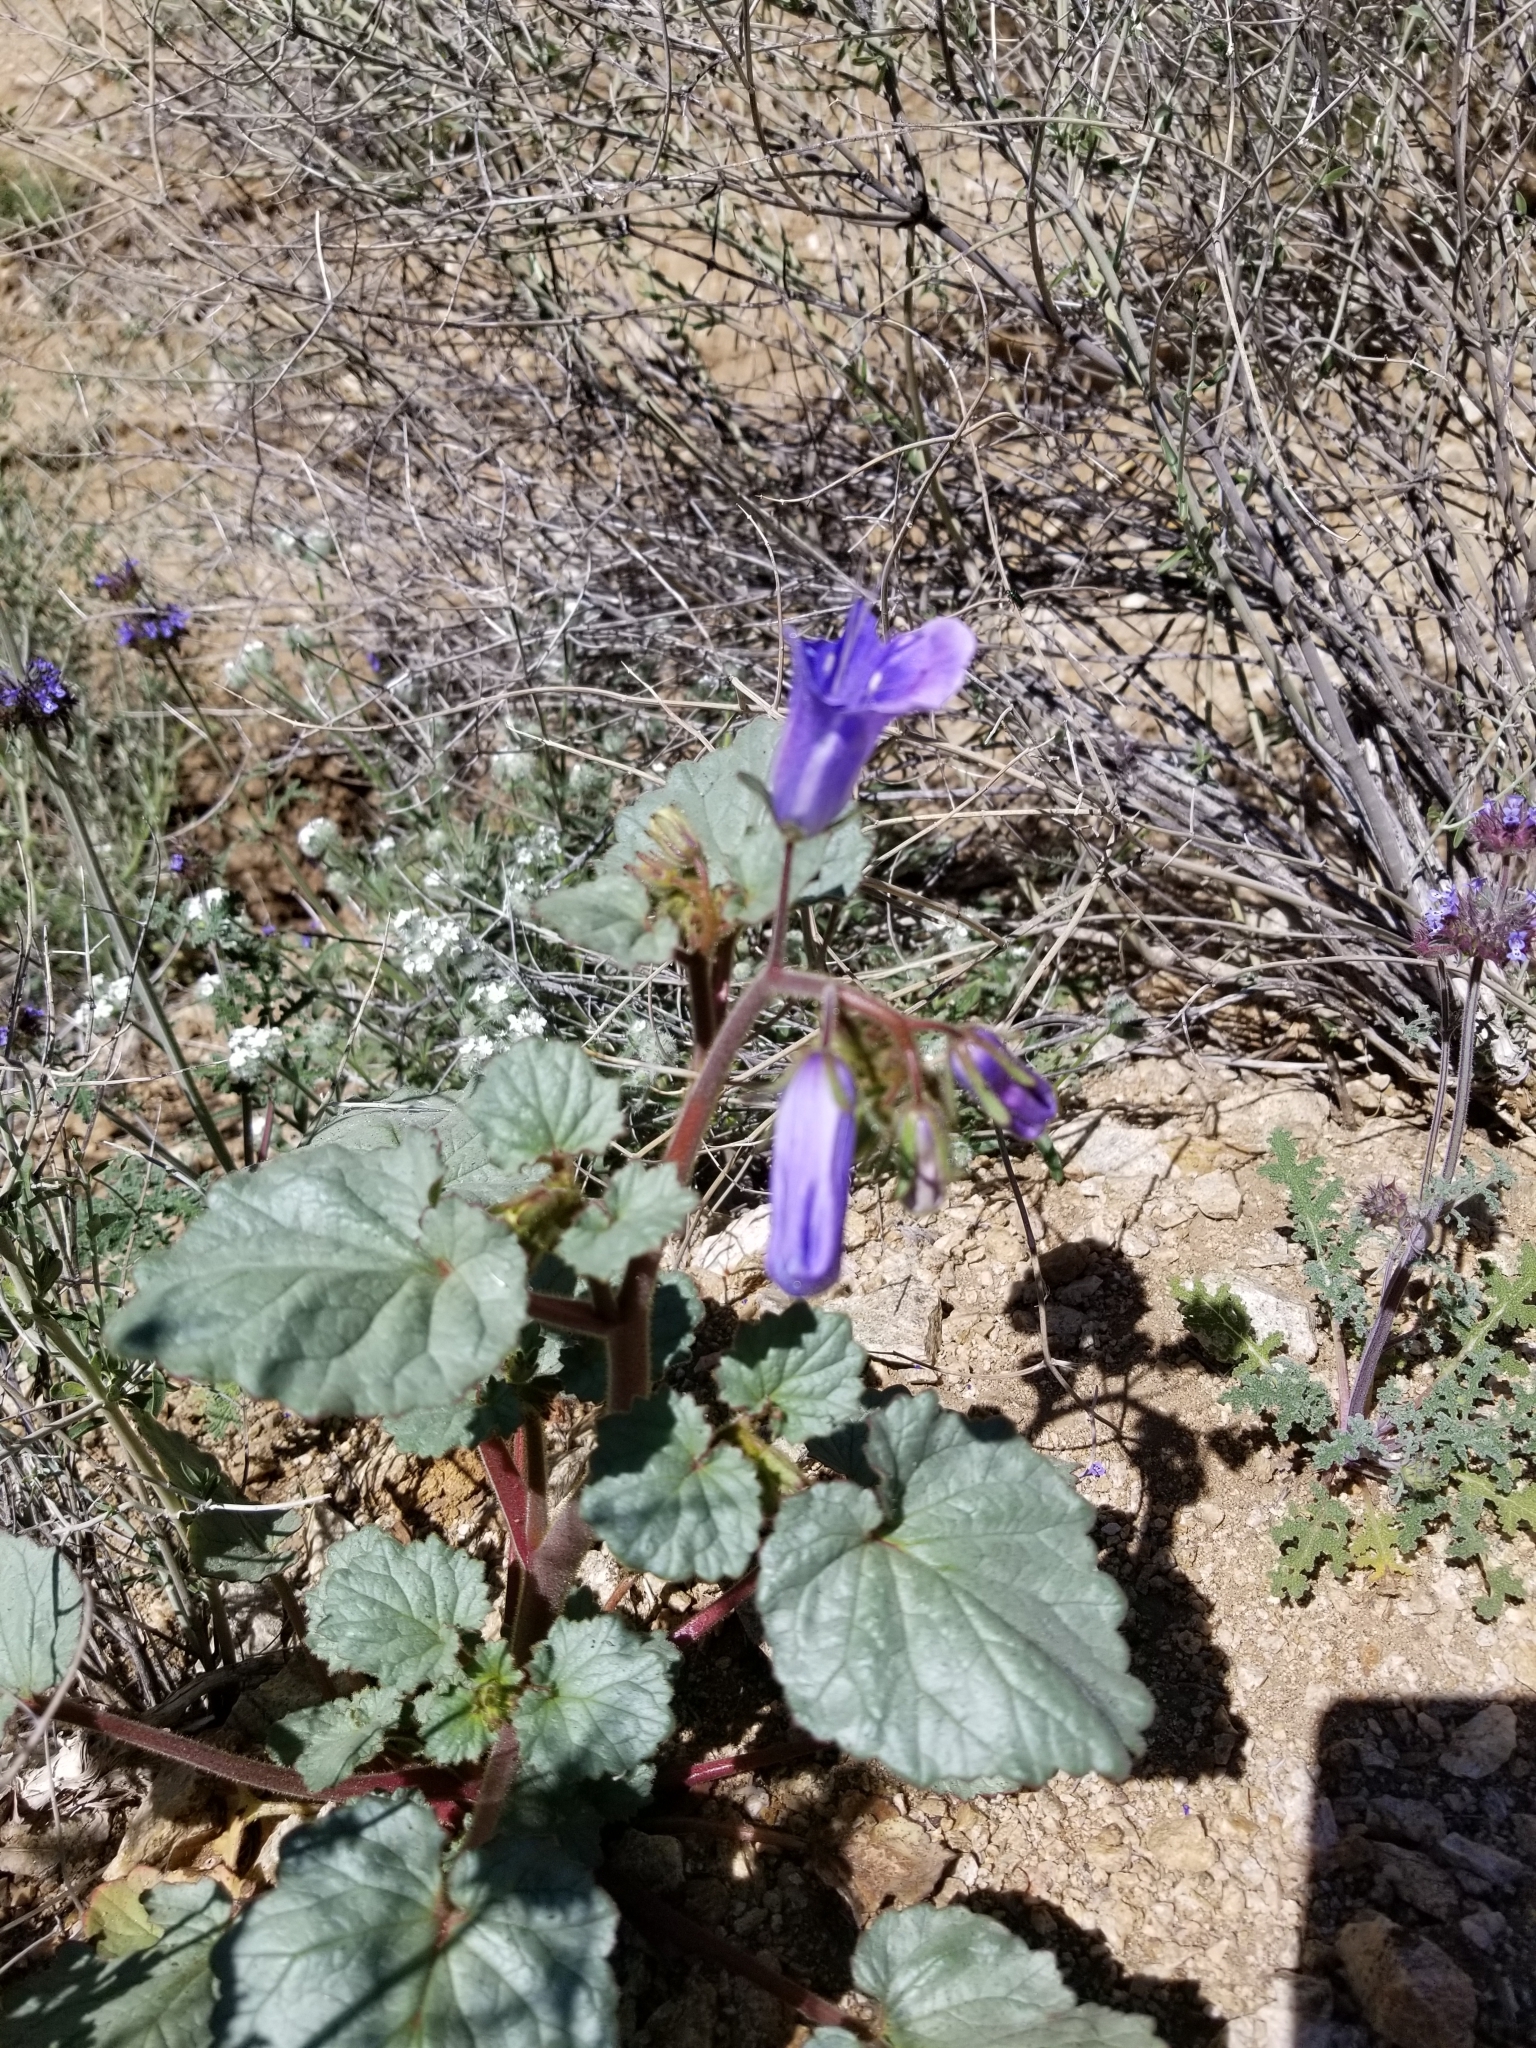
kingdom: Plantae
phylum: Tracheophyta
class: Magnoliopsida
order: Boraginales
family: Hydrophyllaceae
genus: Phacelia
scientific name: Phacelia campanularia
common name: California bluebell
